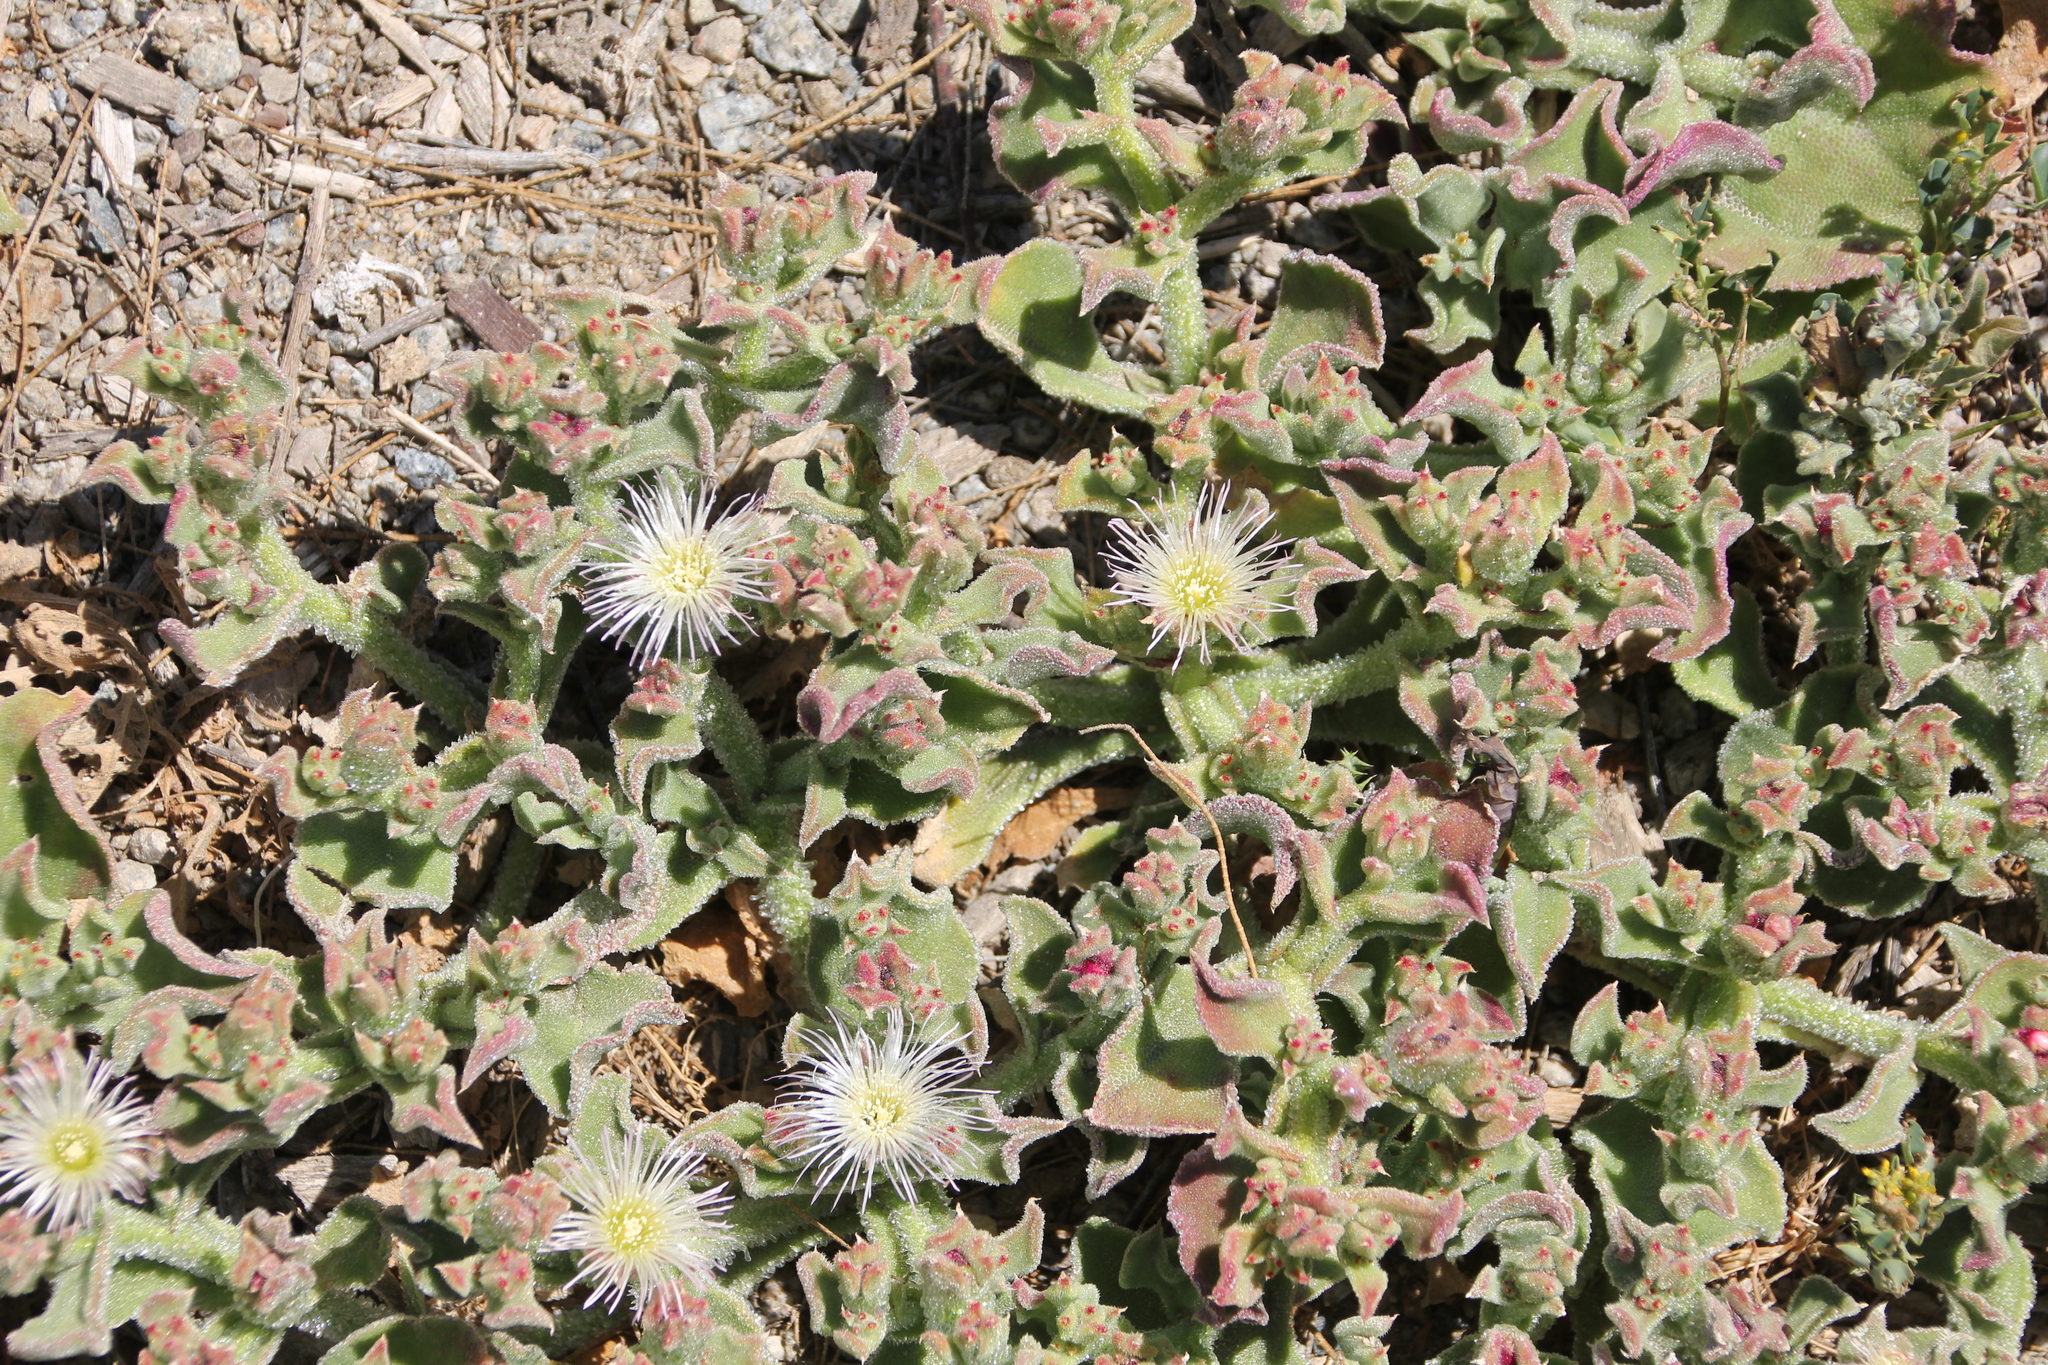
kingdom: Plantae
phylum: Tracheophyta
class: Magnoliopsida
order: Caryophyllales
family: Aizoaceae
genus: Mesembryanthemum
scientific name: Mesembryanthemum crystallinum
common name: Common iceplant
